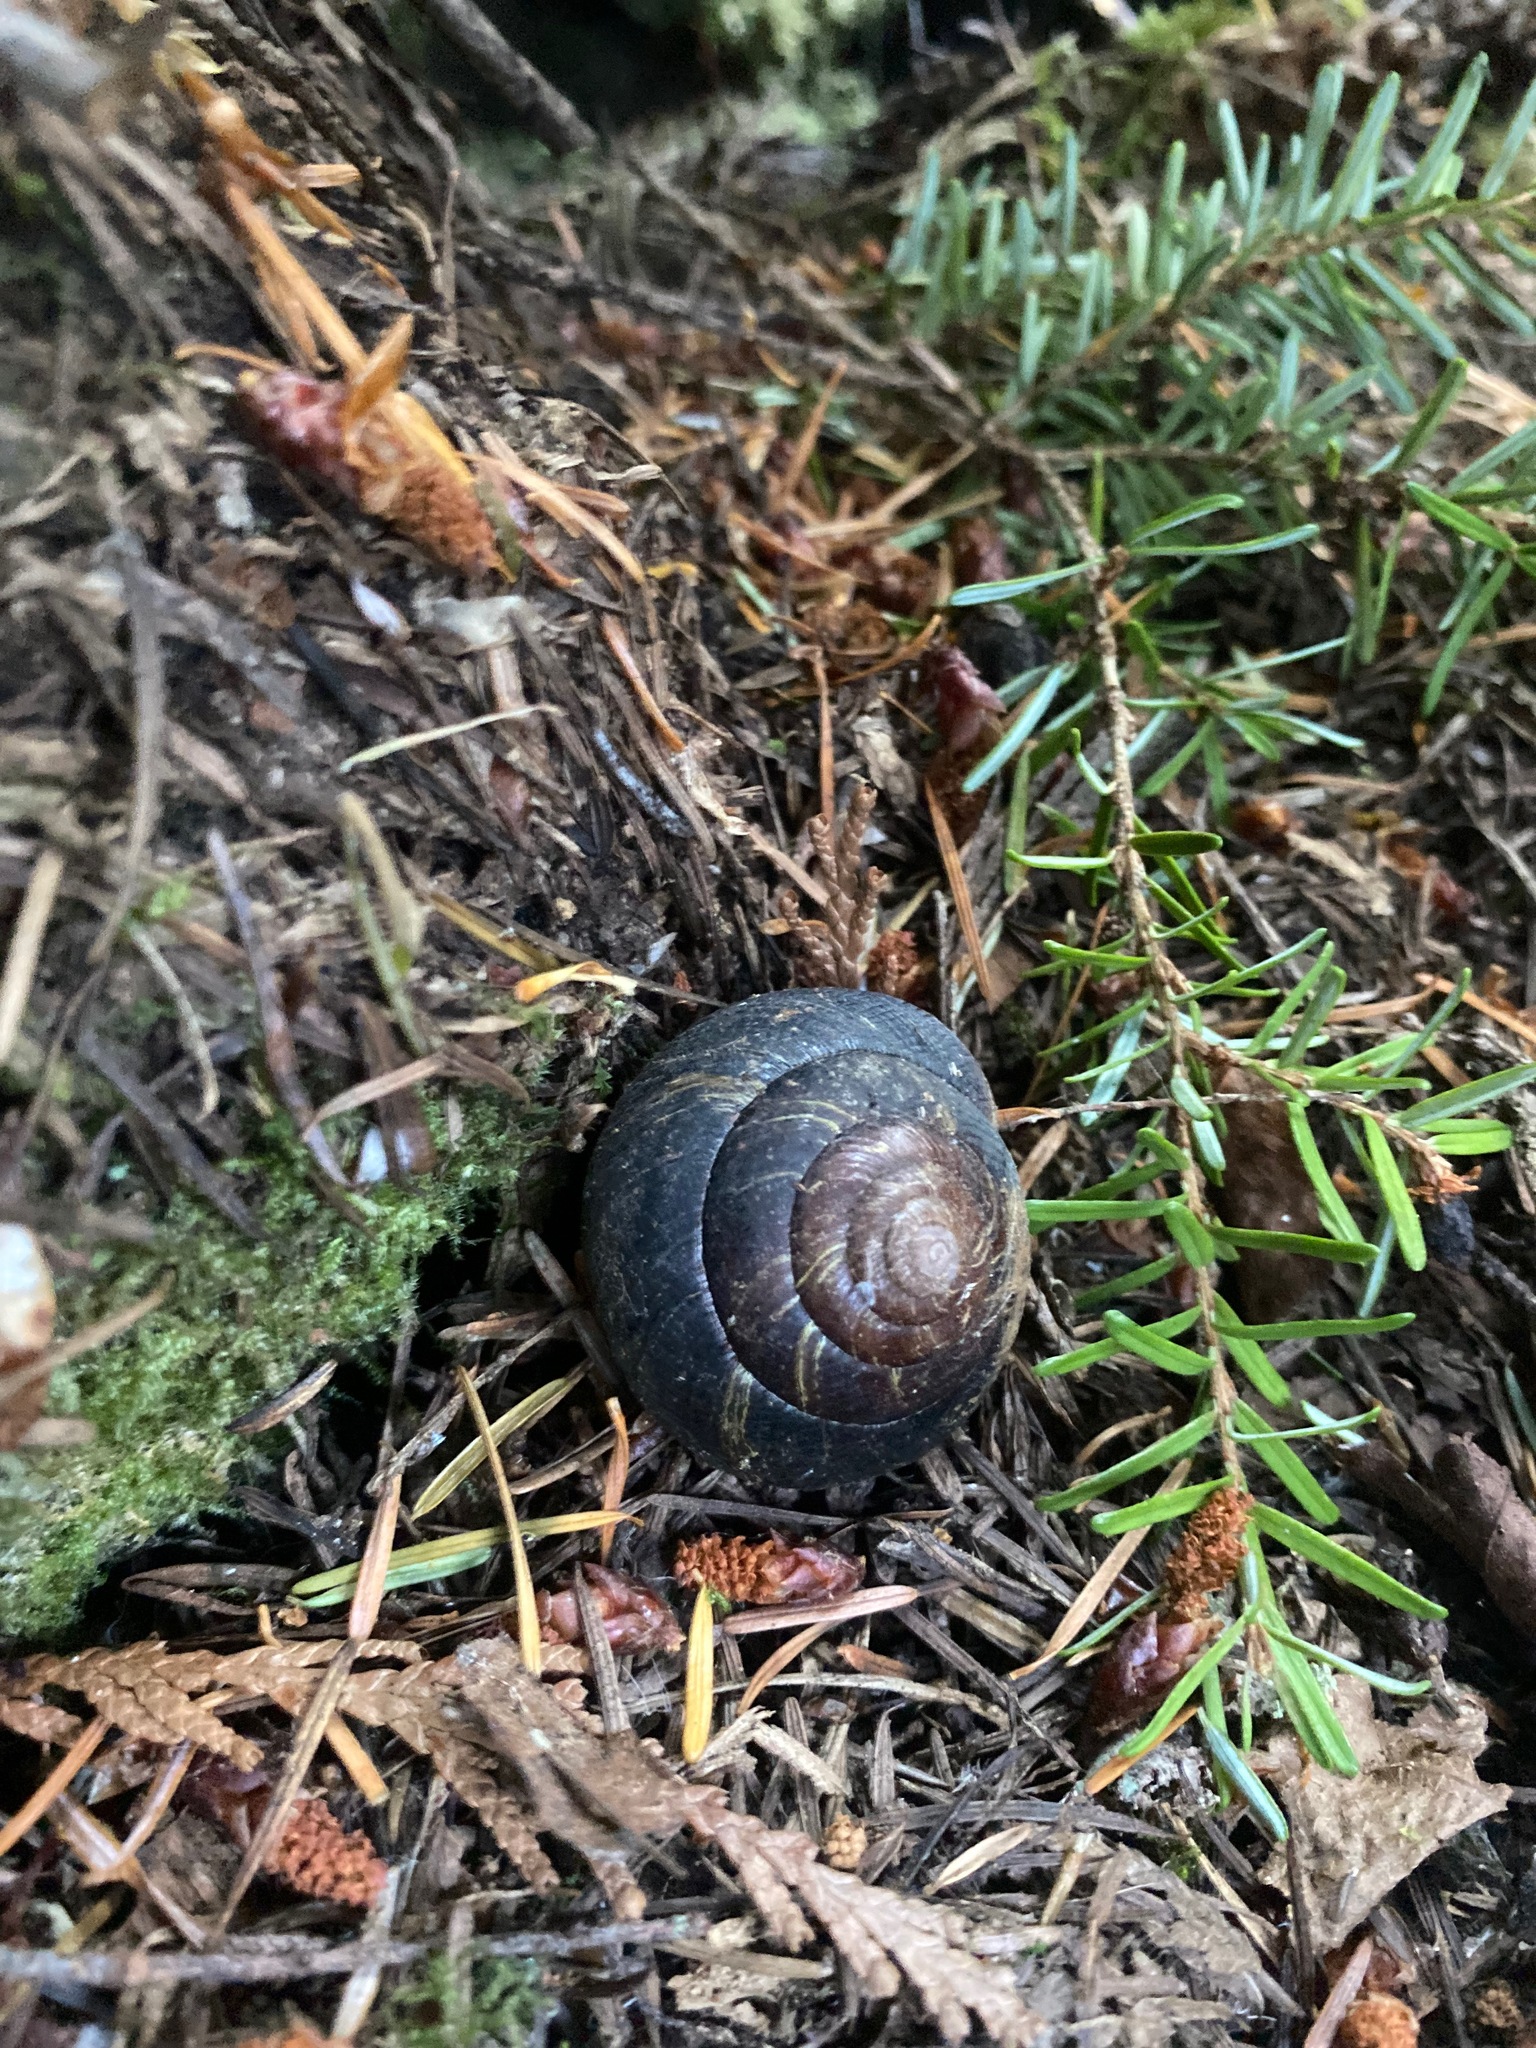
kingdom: Animalia
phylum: Mollusca
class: Gastropoda
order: Stylommatophora
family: Xanthonychidae
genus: Monadenia
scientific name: Monadenia fidelis
